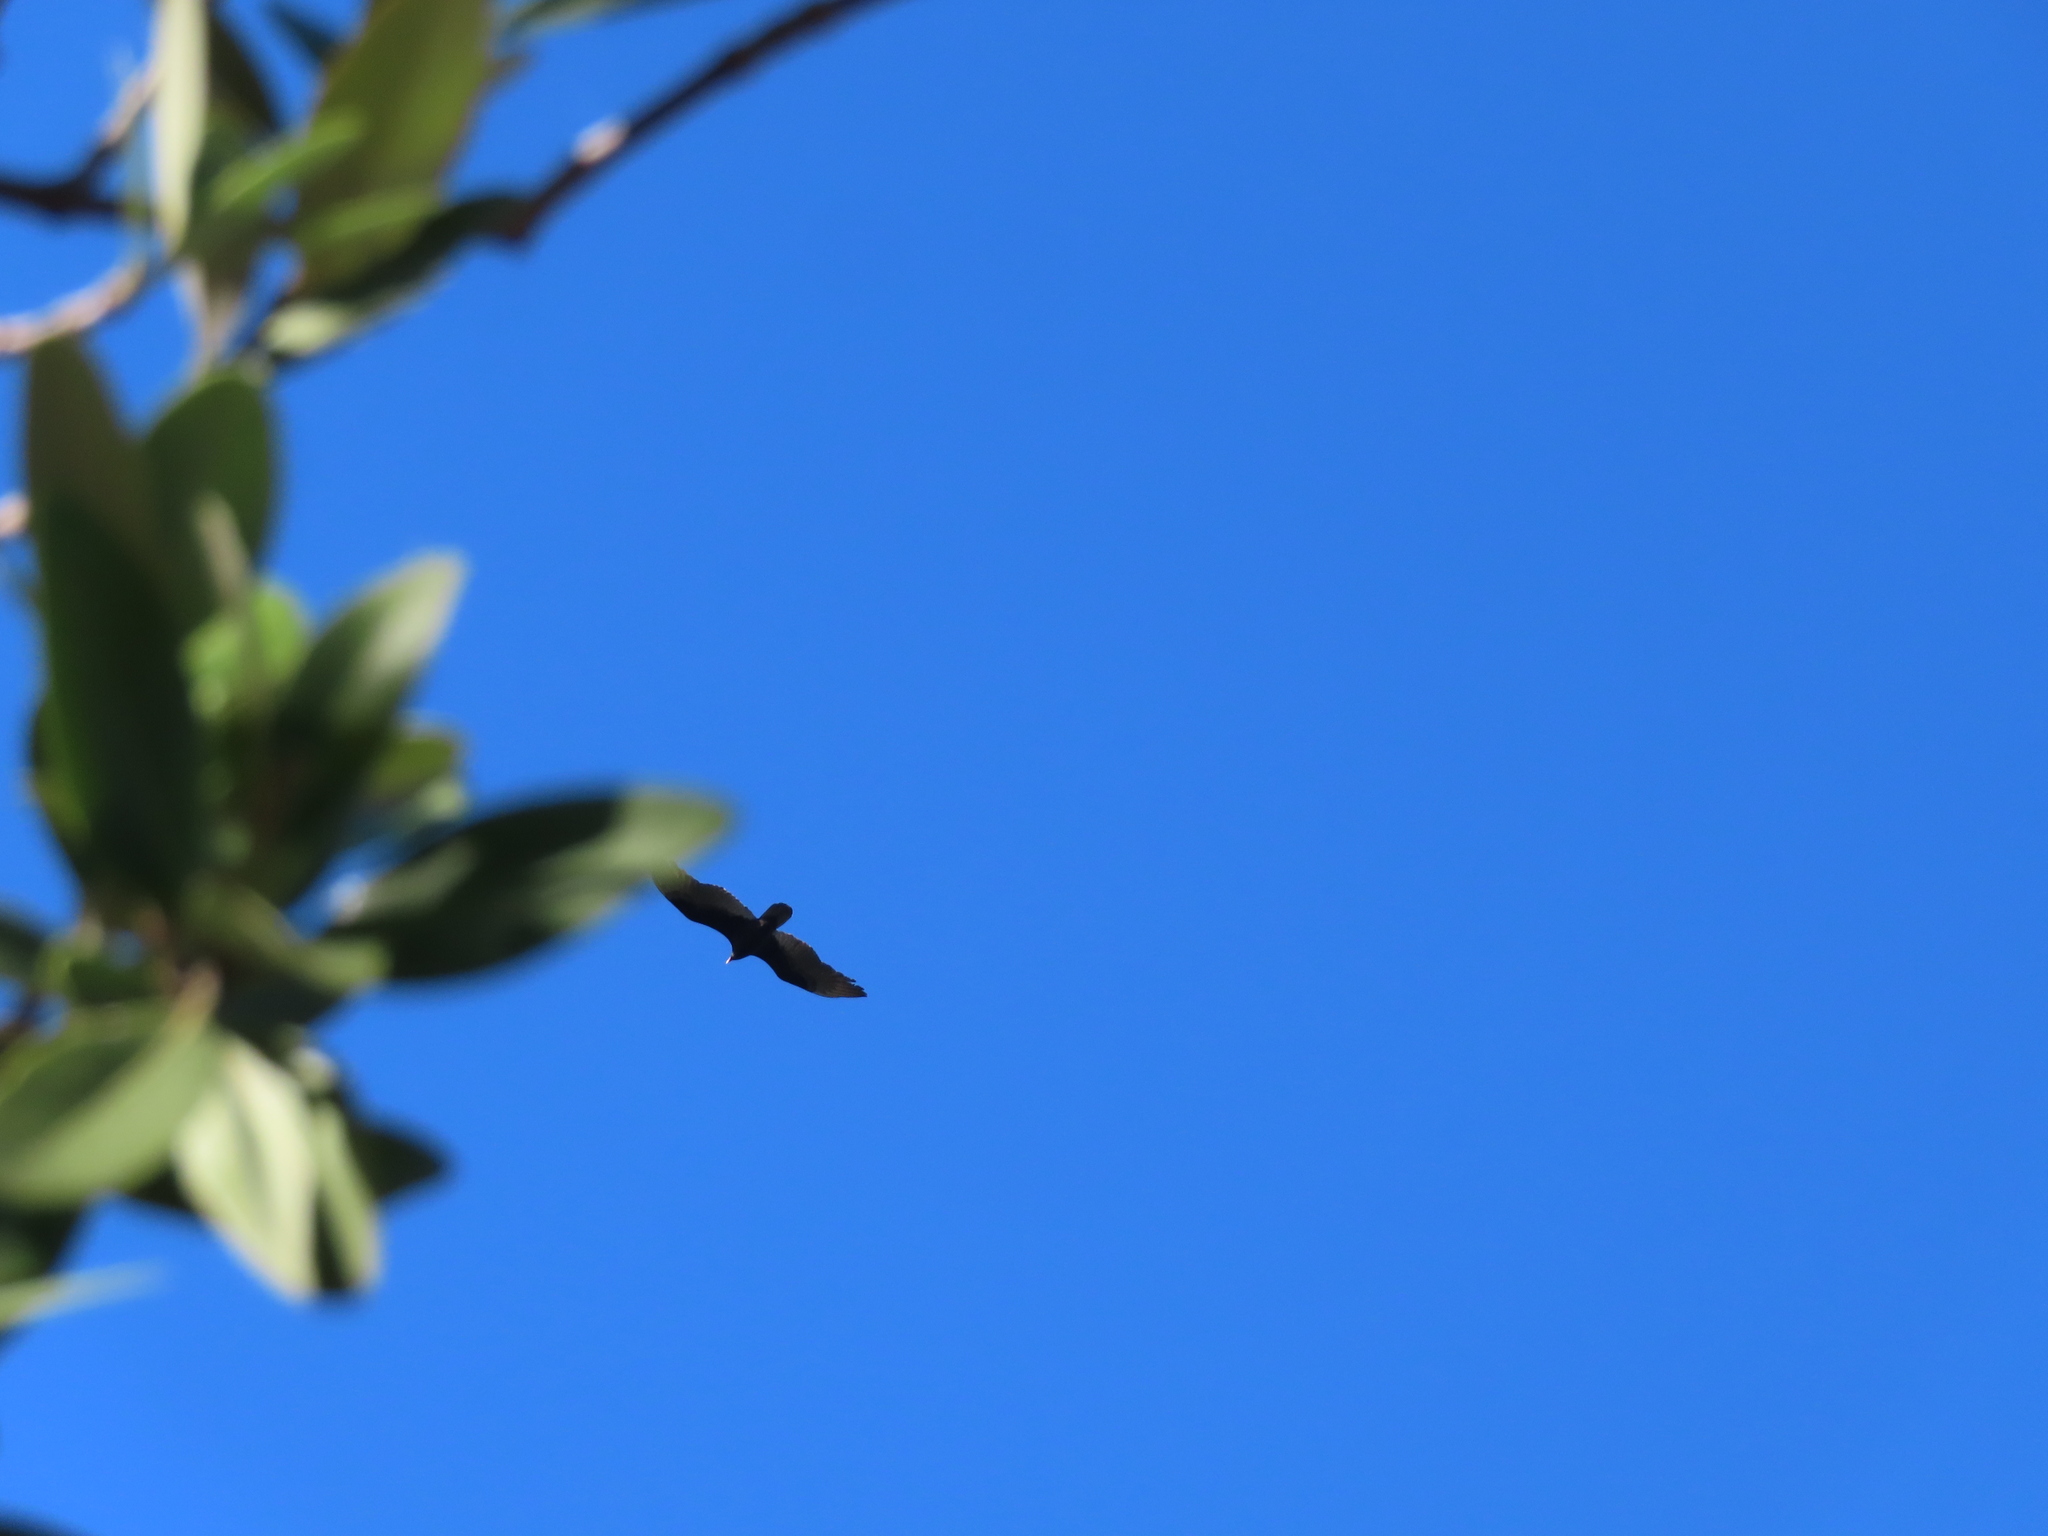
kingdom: Animalia
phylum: Chordata
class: Aves
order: Accipitriformes
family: Cathartidae
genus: Cathartes
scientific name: Cathartes aura
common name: Turkey vulture
